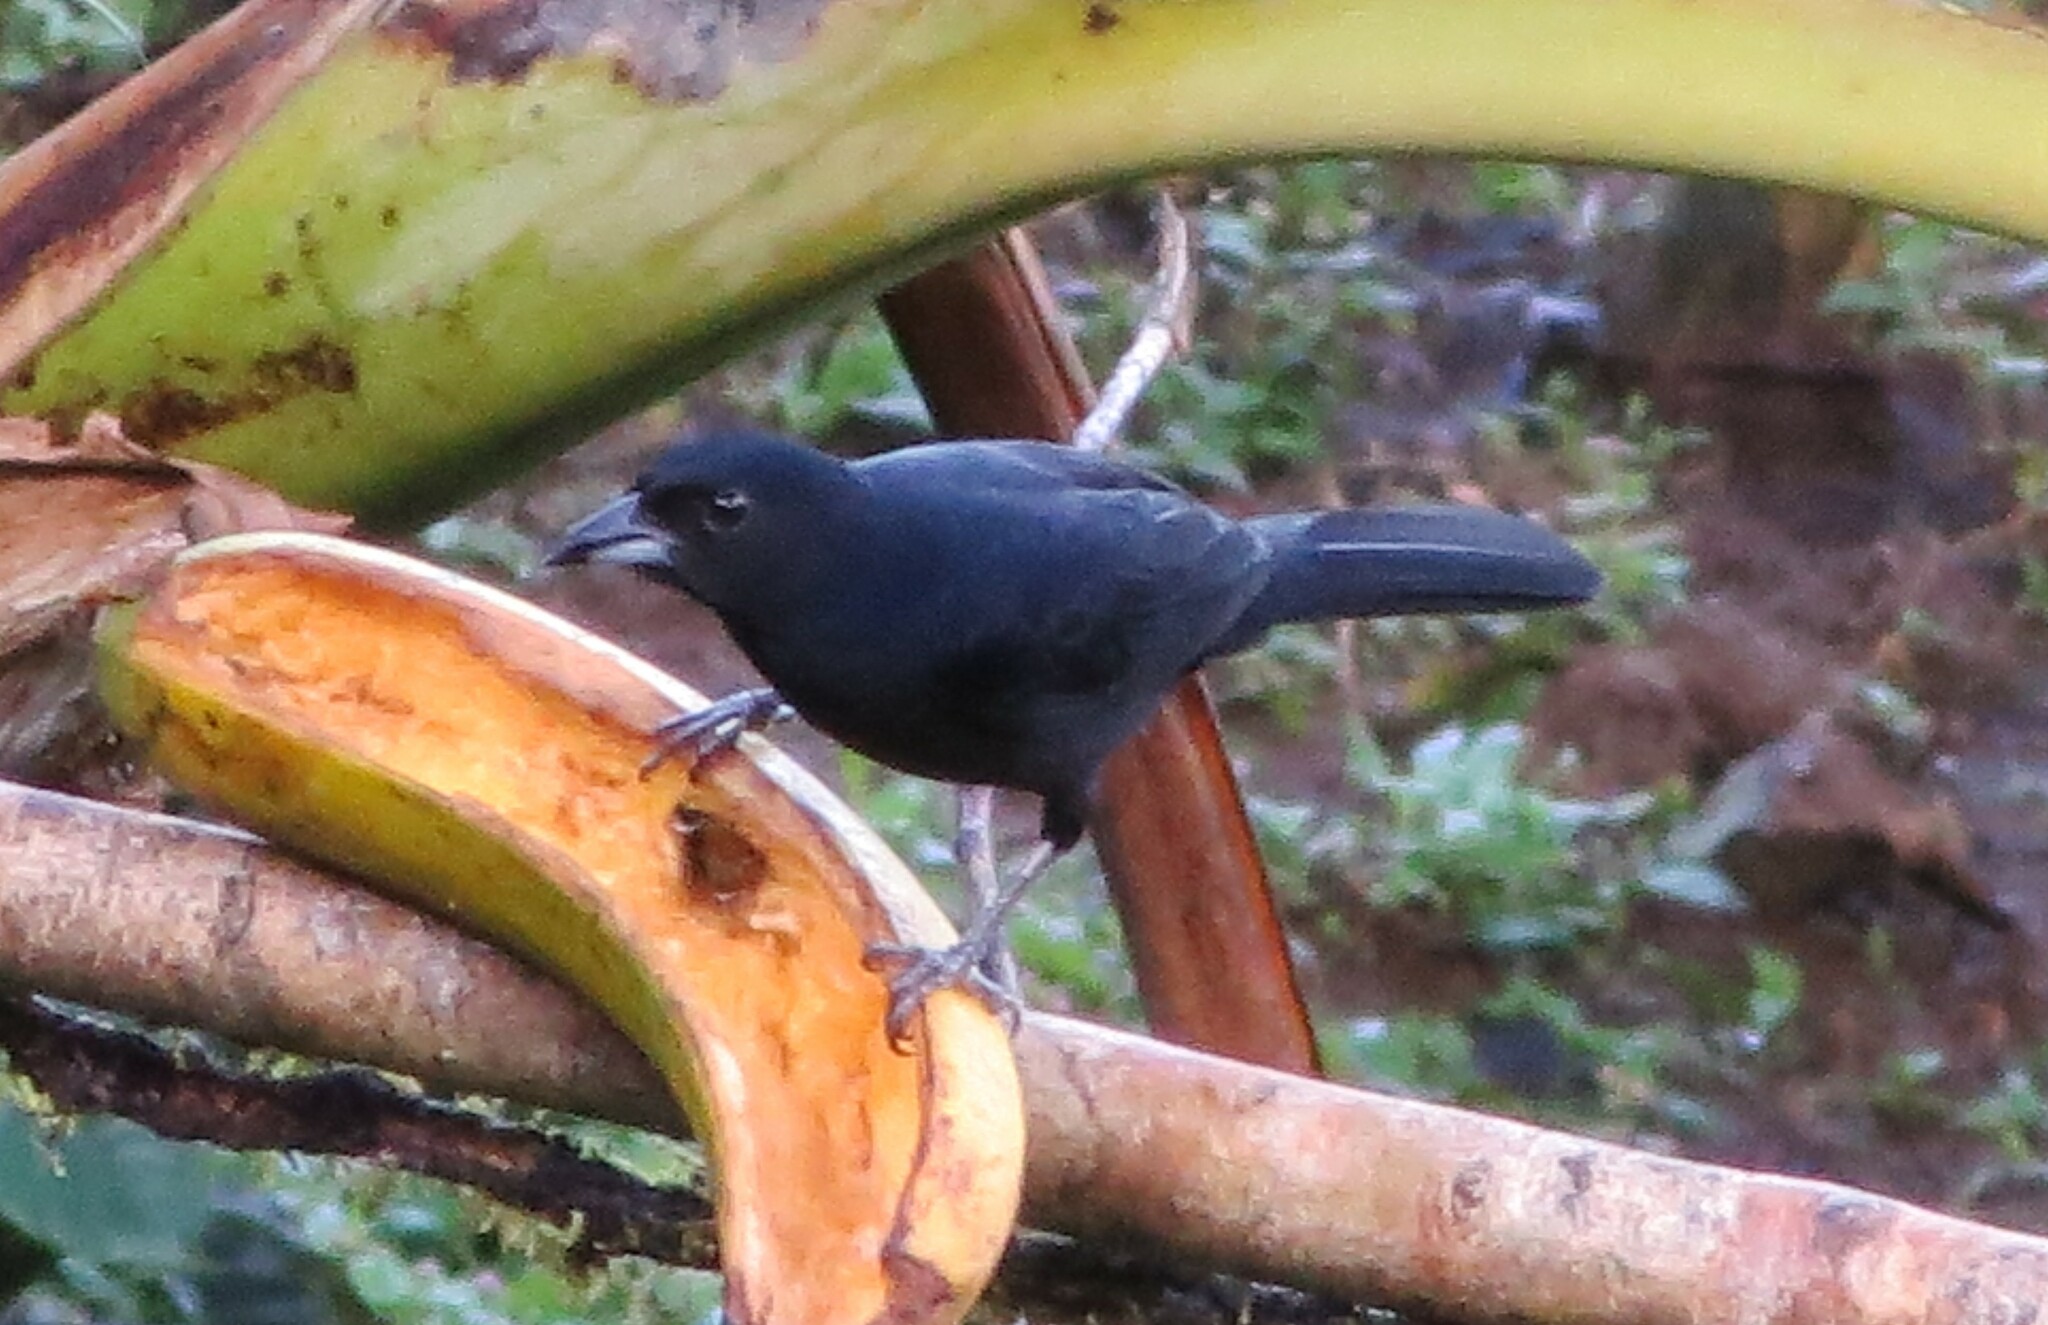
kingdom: Animalia
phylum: Chordata
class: Aves
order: Passeriformes
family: Thraupidae
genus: Tachyphonus
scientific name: Tachyphonus rufus
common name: White-lined tanager
